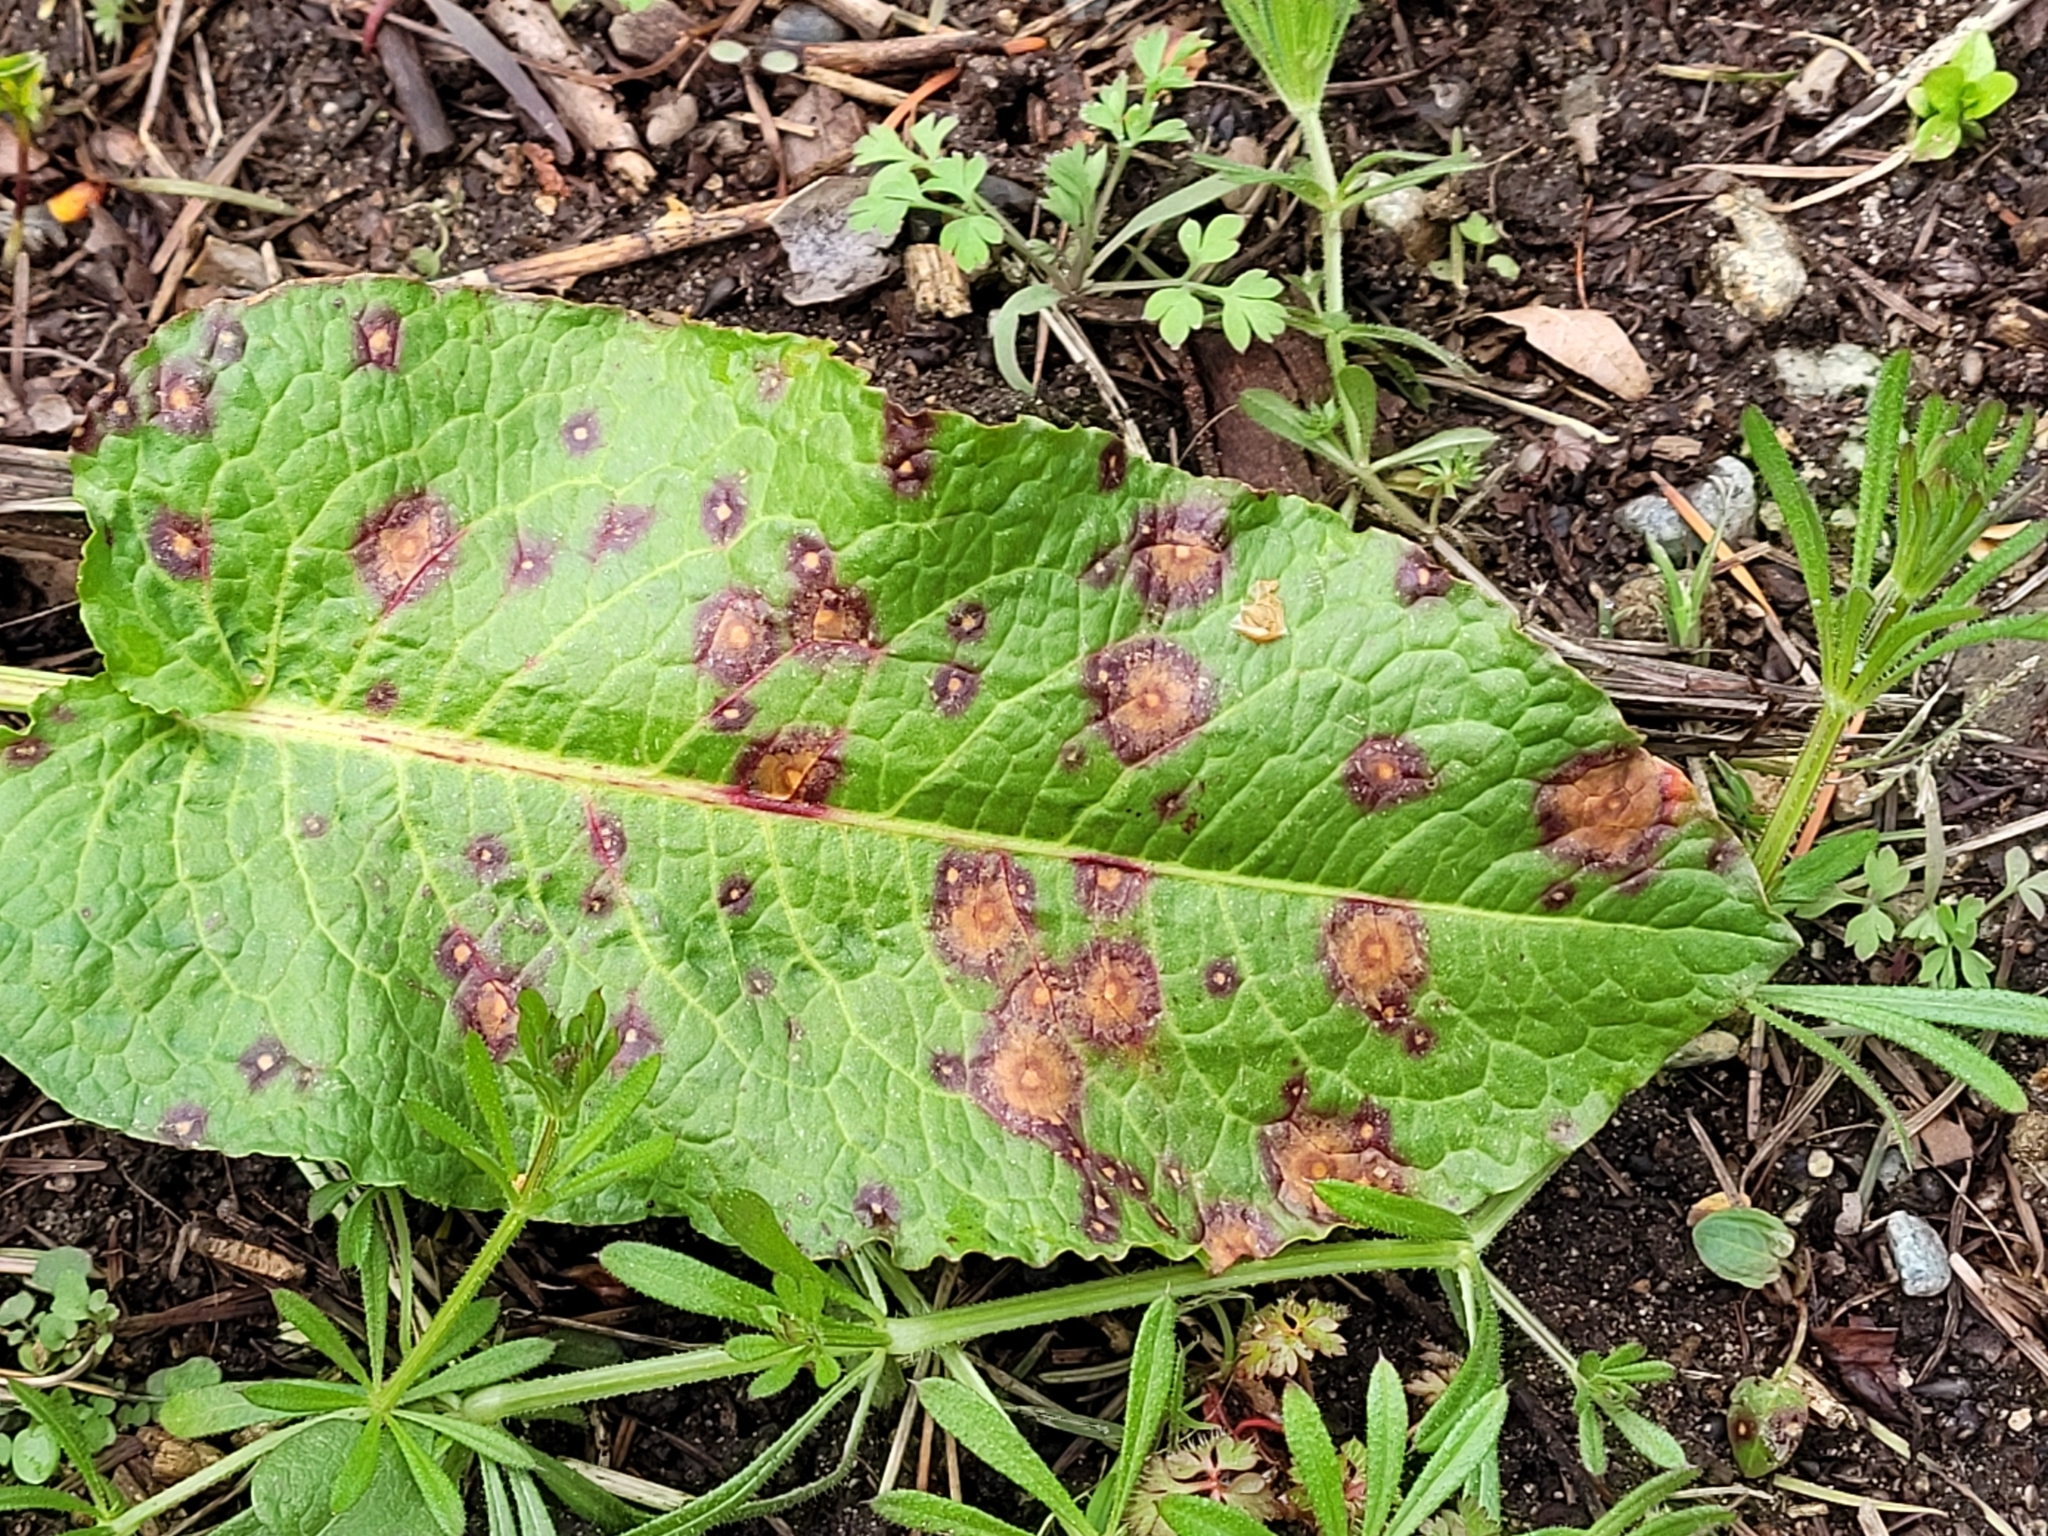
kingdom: Fungi
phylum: Ascomycota
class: Dothideomycetes
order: Mycosphaerellales
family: Mycosphaerellaceae
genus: Ramularia
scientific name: Ramularia rubella
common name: Red dock spot
